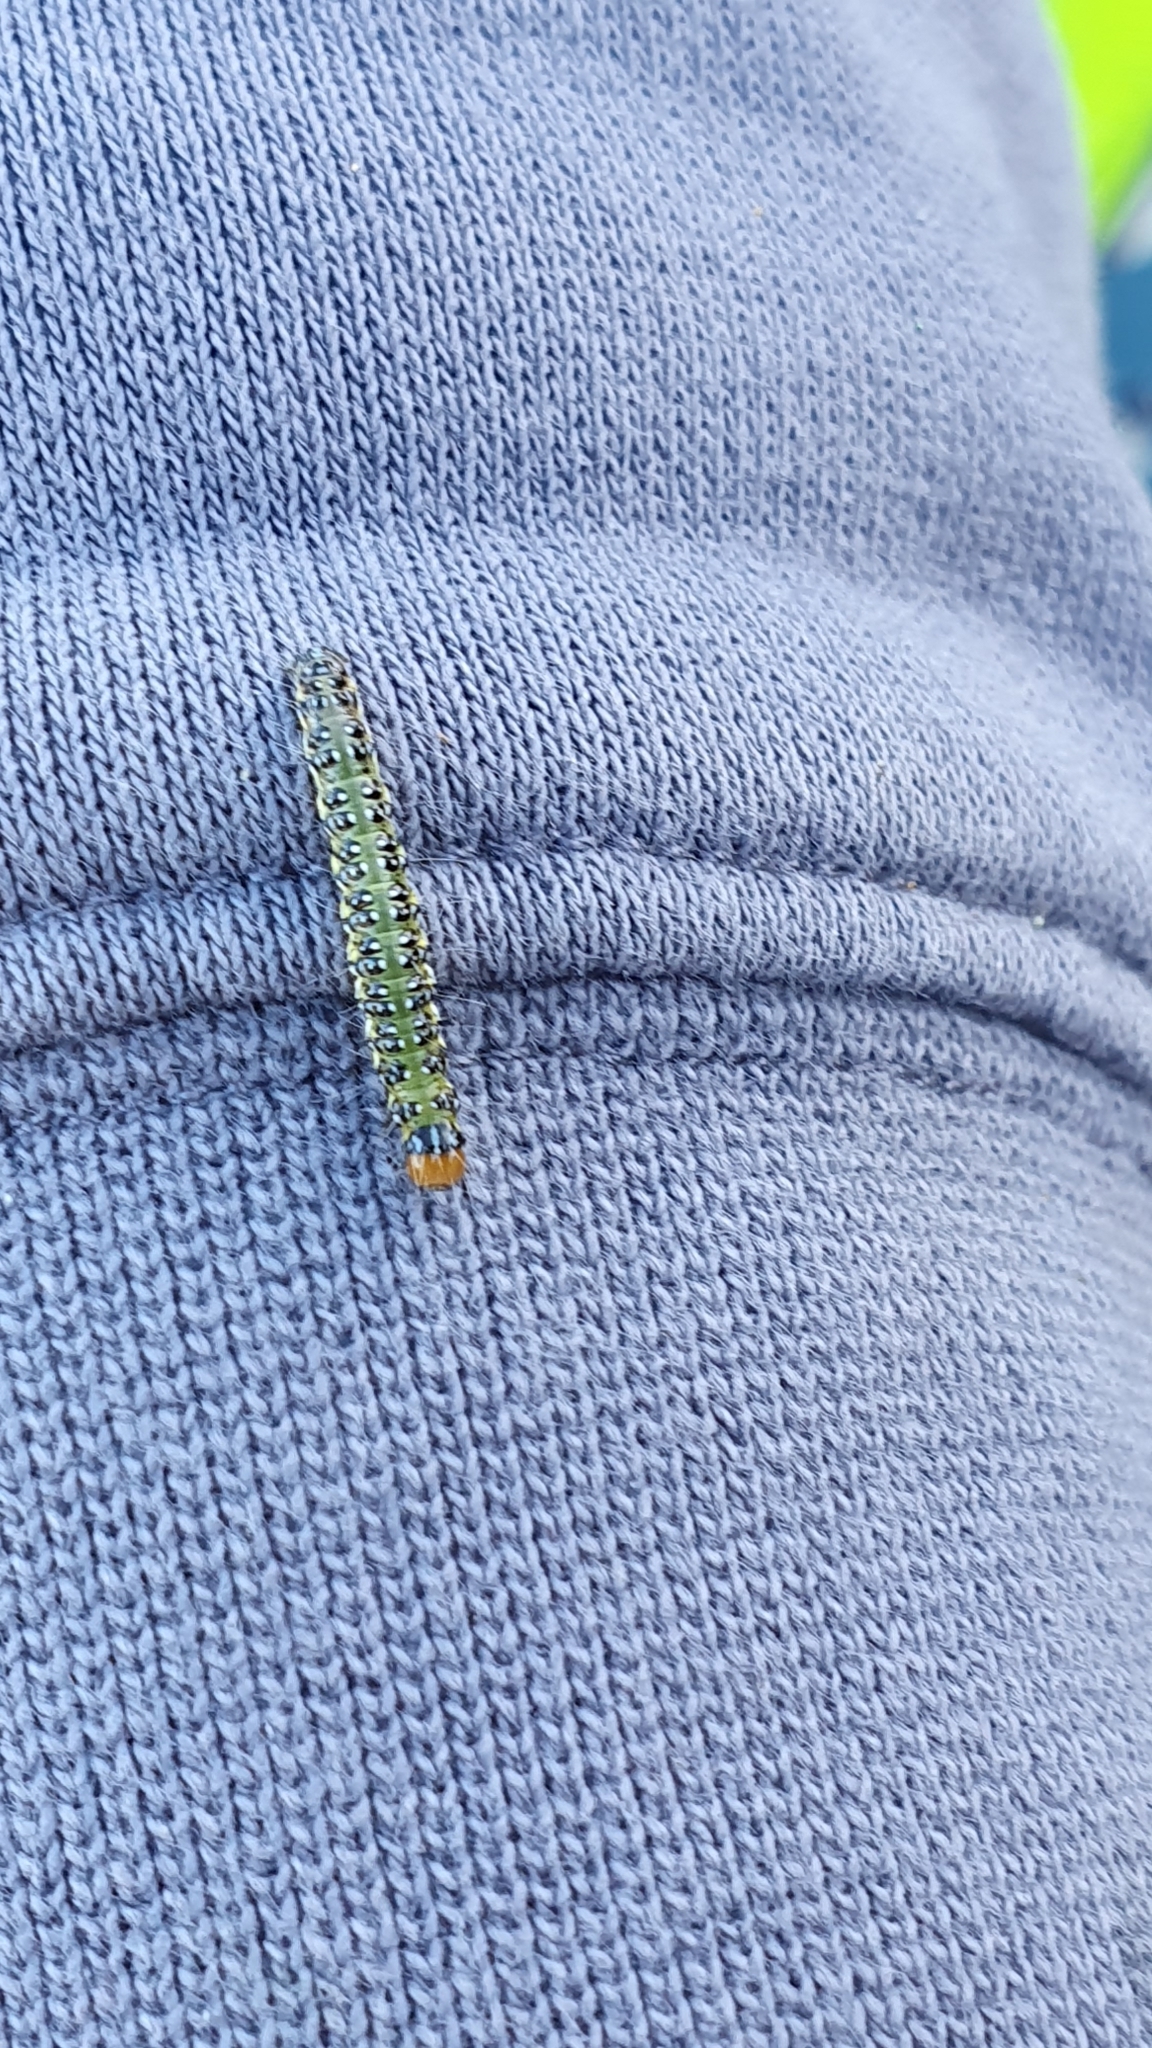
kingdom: Animalia
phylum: Arthropoda
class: Insecta
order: Lepidoptera
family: Crambidae
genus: Uresiphita
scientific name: Uresiphita
